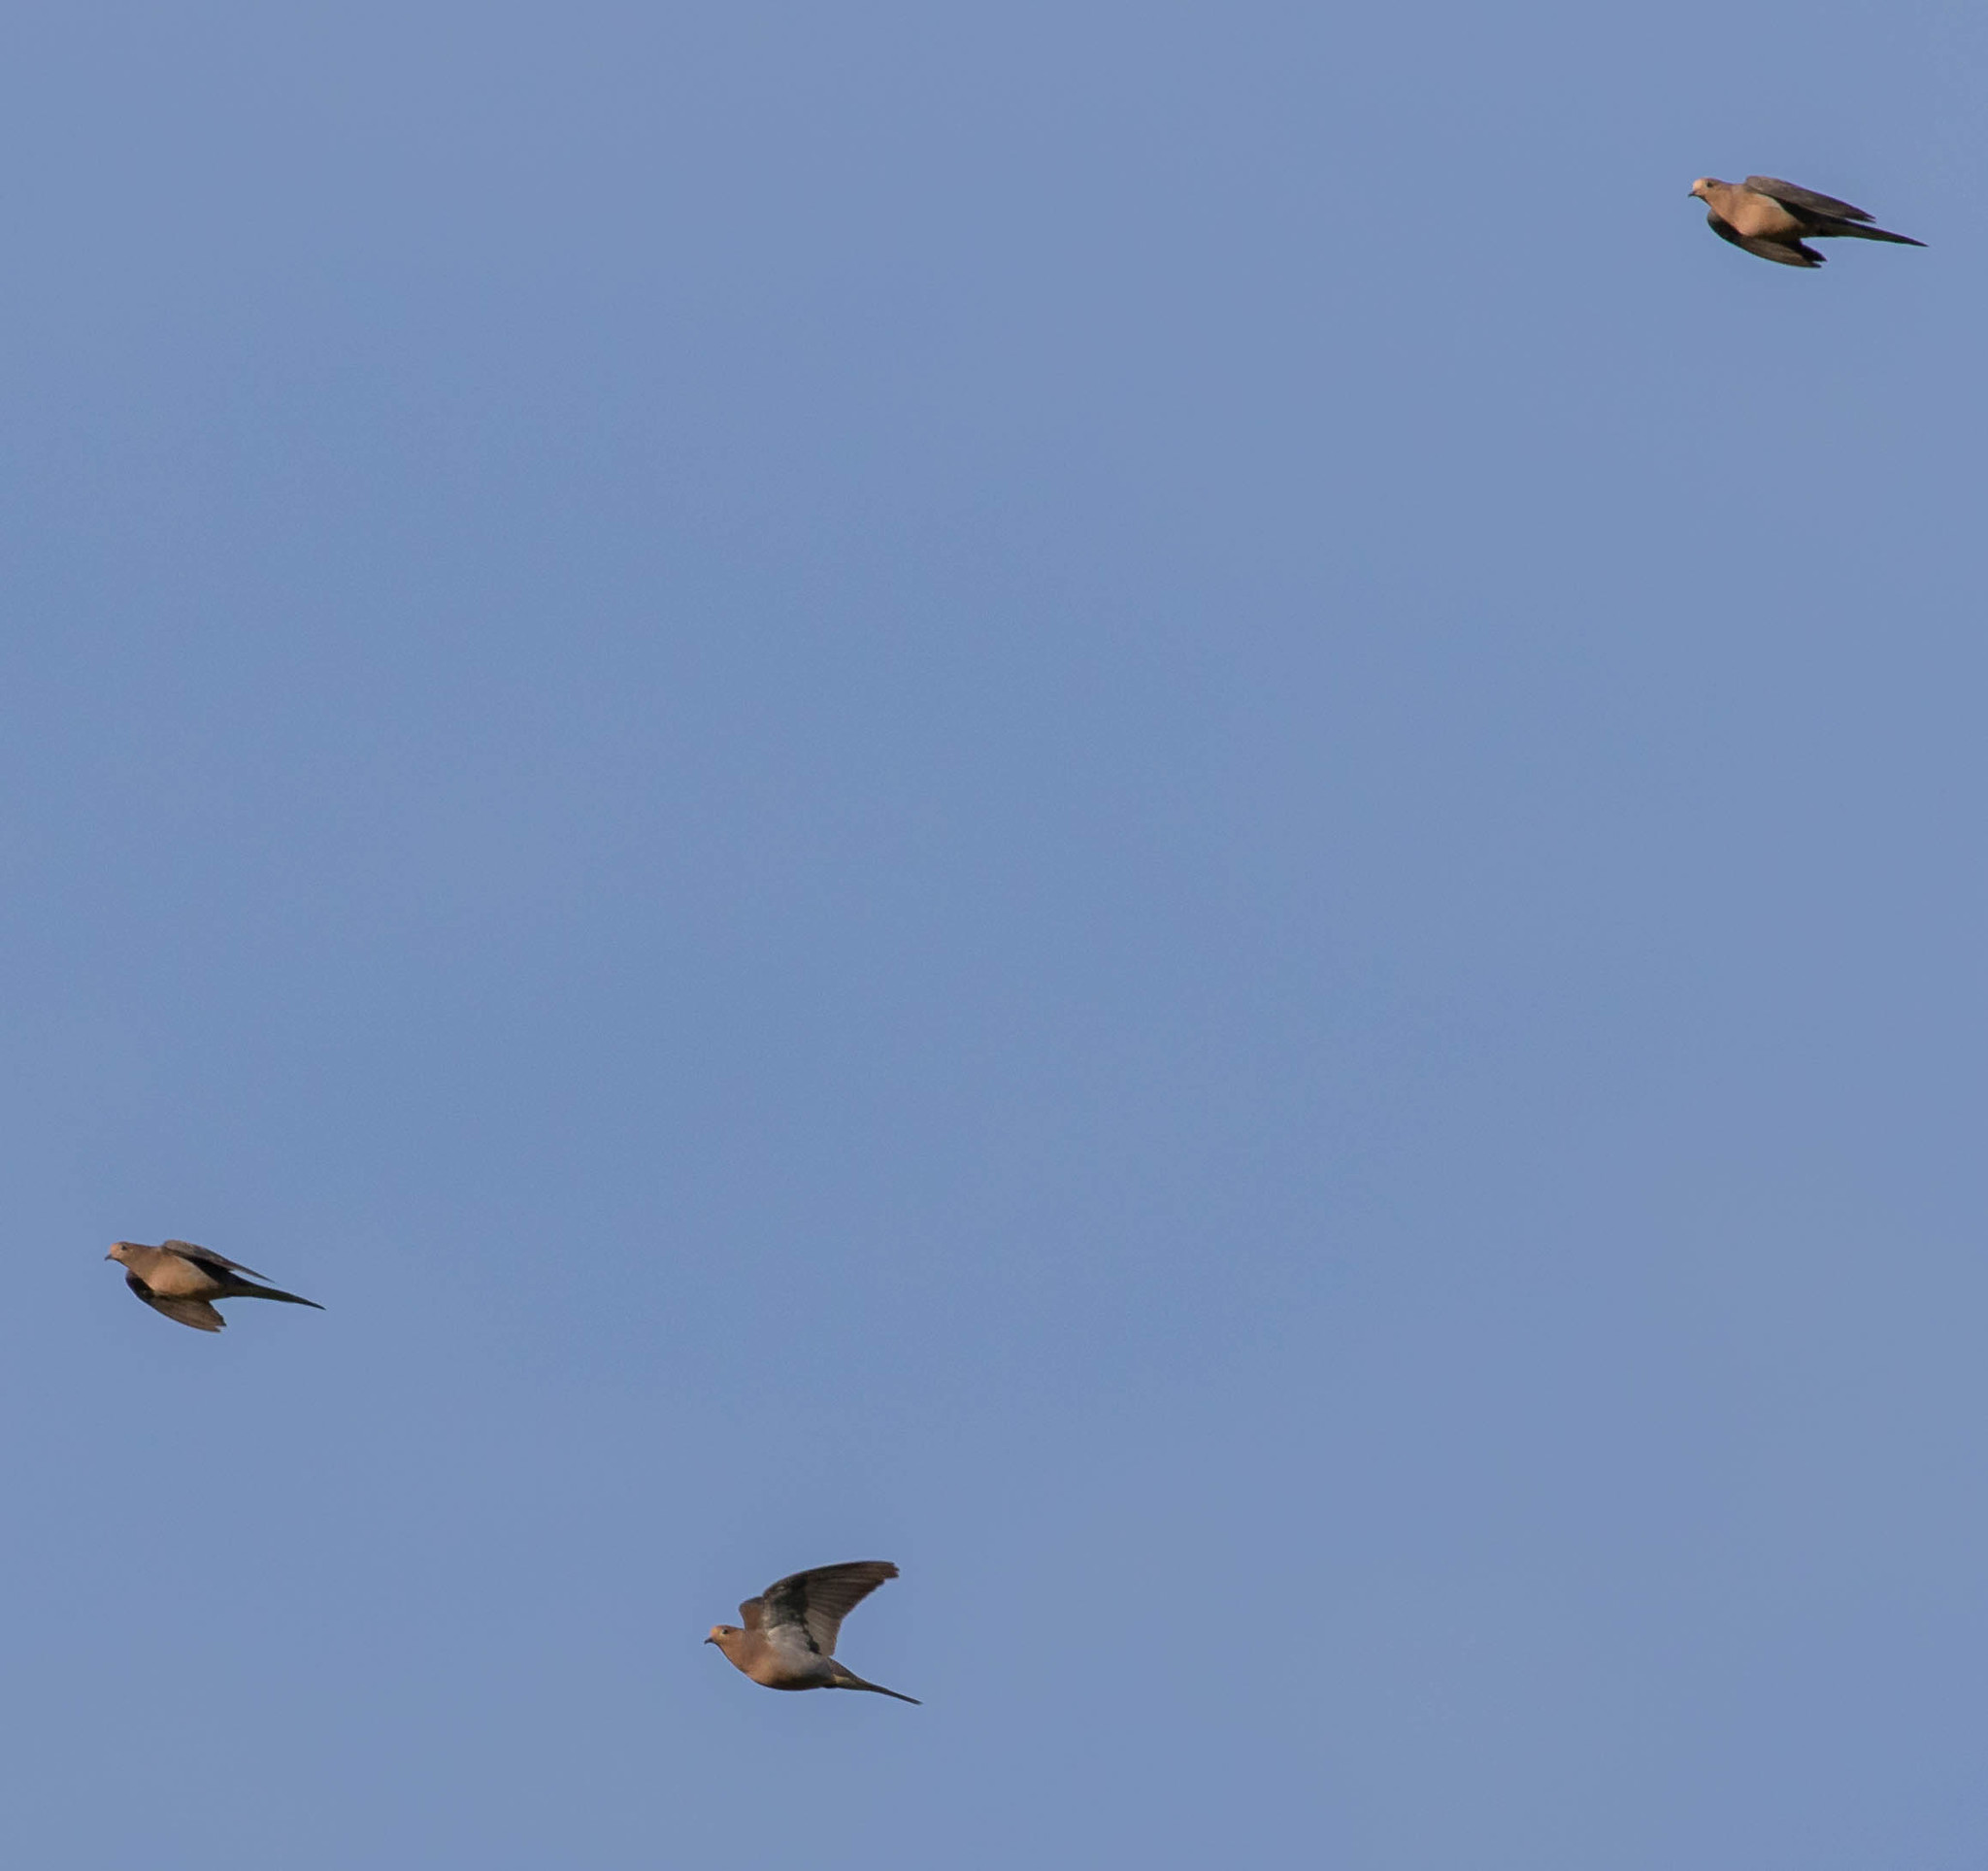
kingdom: Animalia
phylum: Chordata
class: Aves
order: Columbiformes
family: Columbidae
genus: Zenaida
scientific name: Zenaida macroura
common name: Mourning dove
